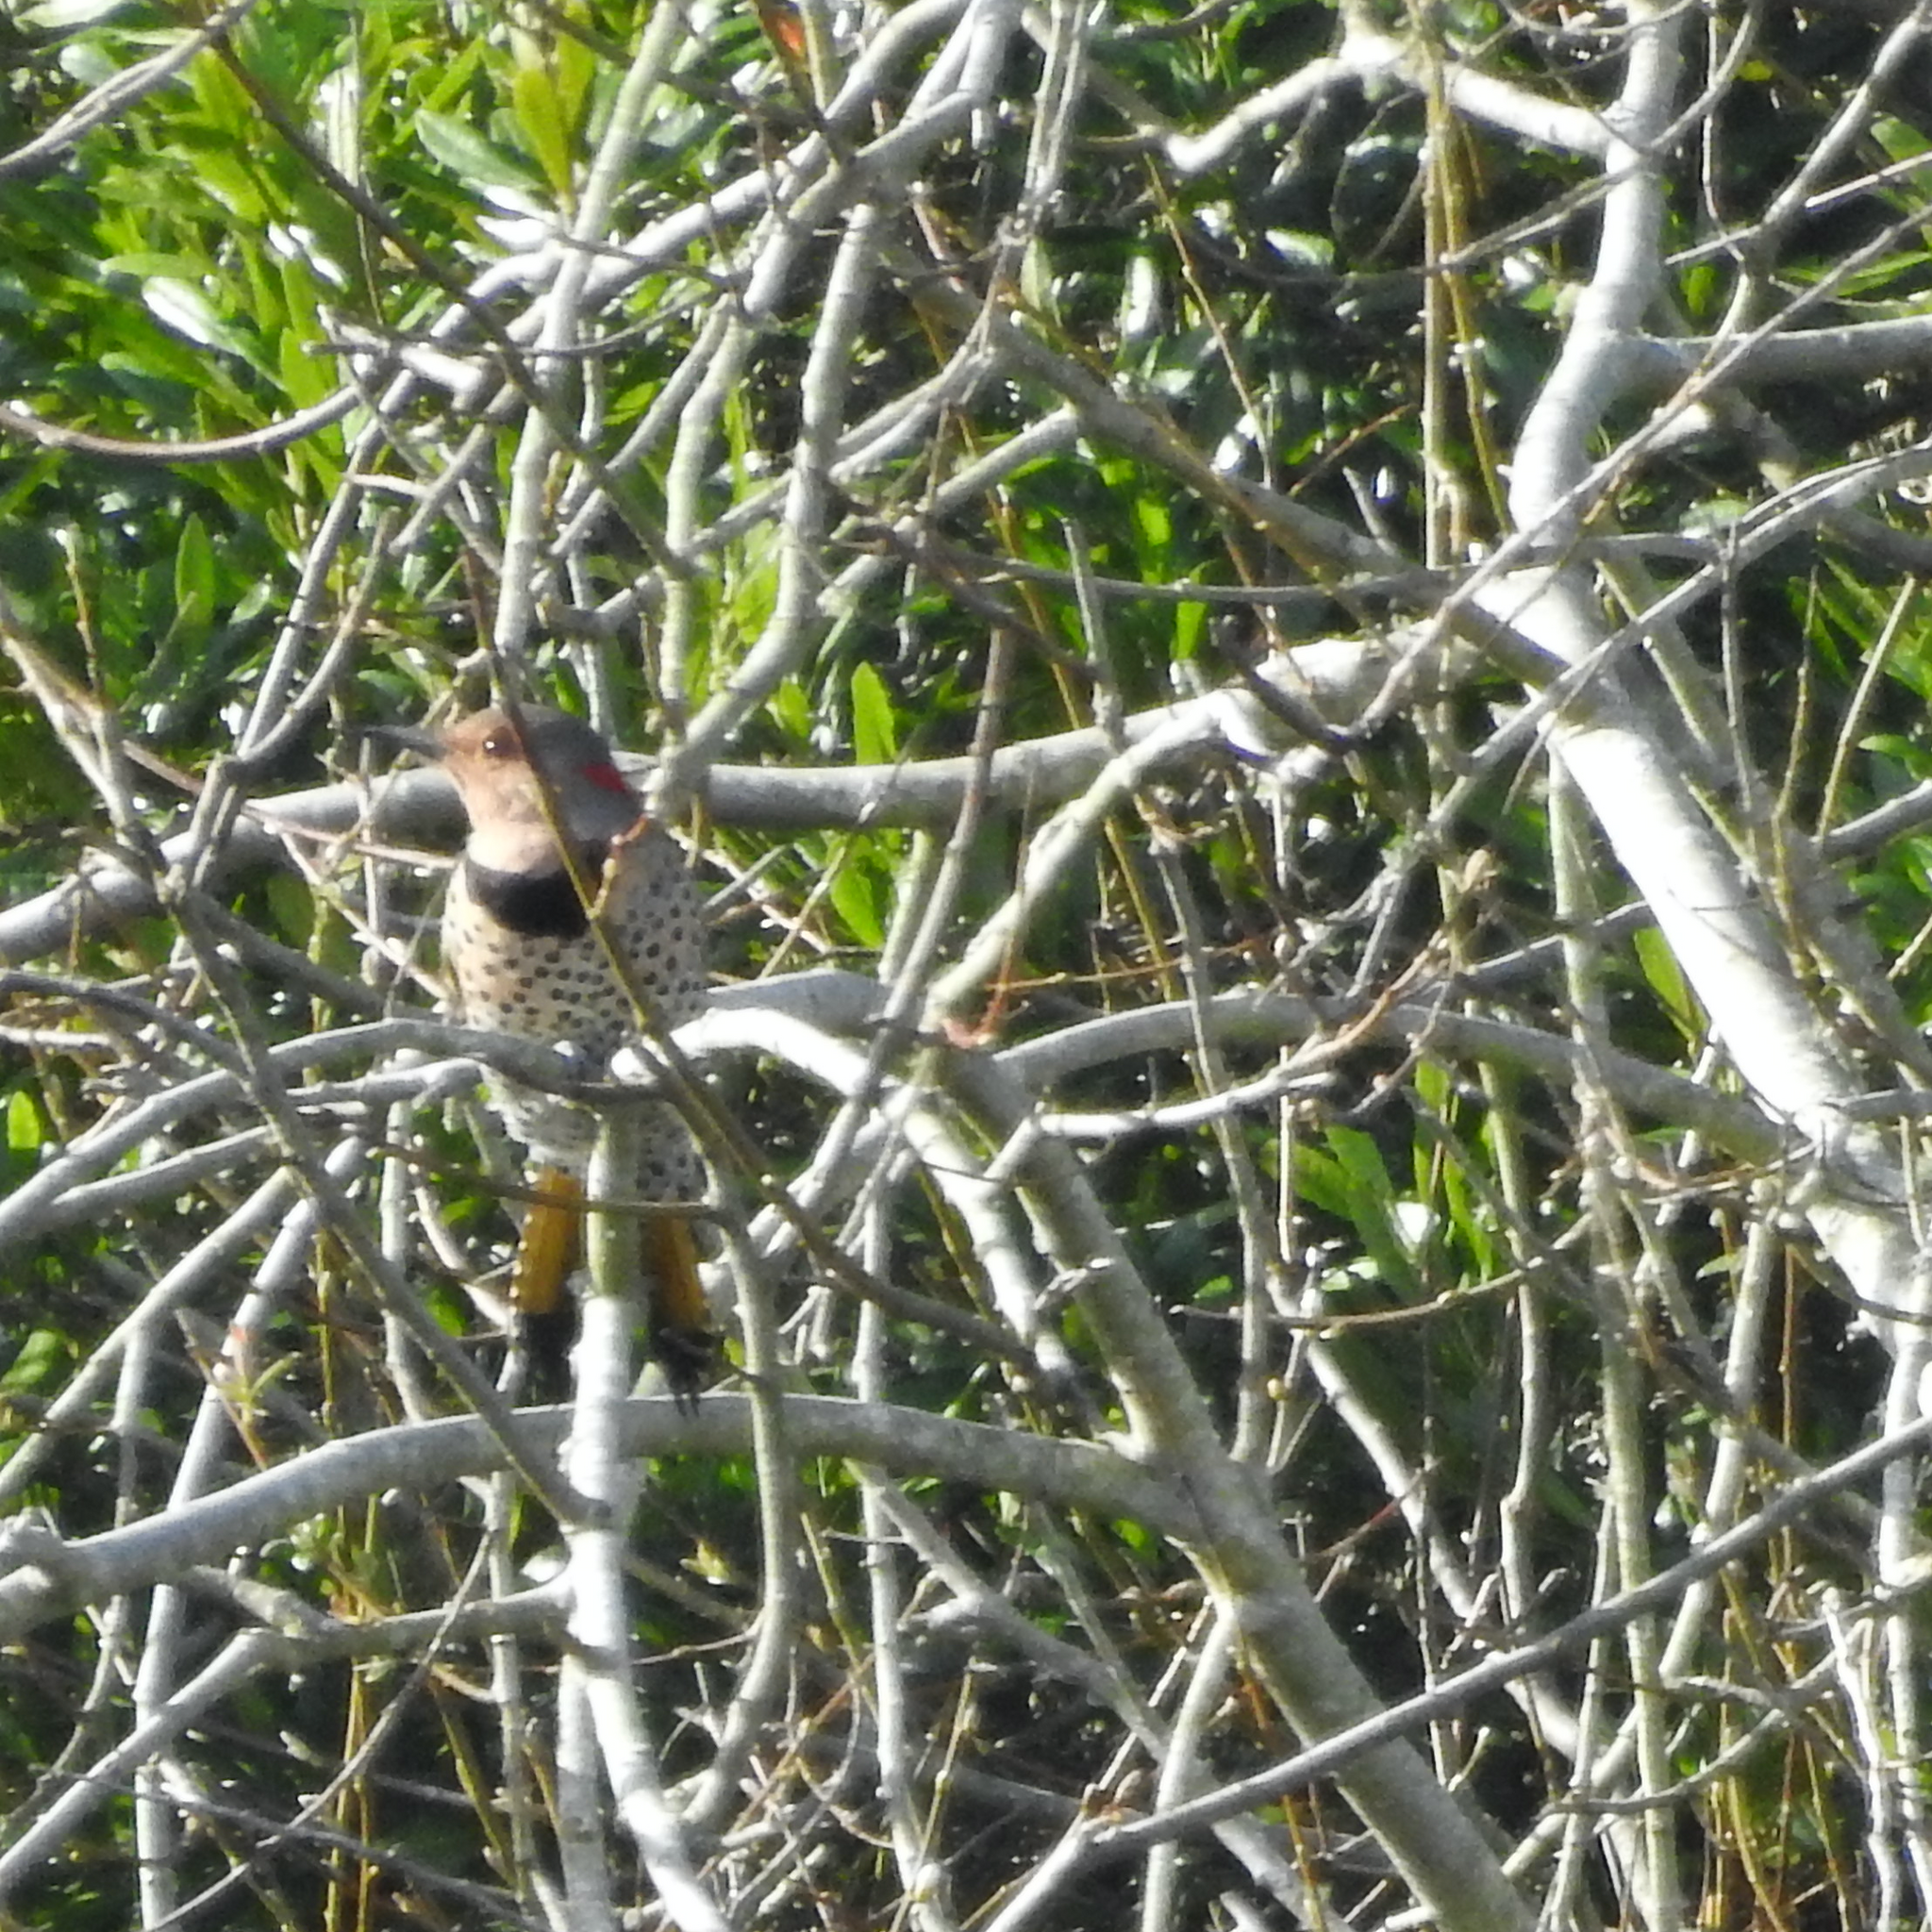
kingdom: Animalia
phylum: Chordata
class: Aves
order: Piciformes
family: Picidae
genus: Colaptes
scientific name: Colaptes auratus
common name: Northern flicker
